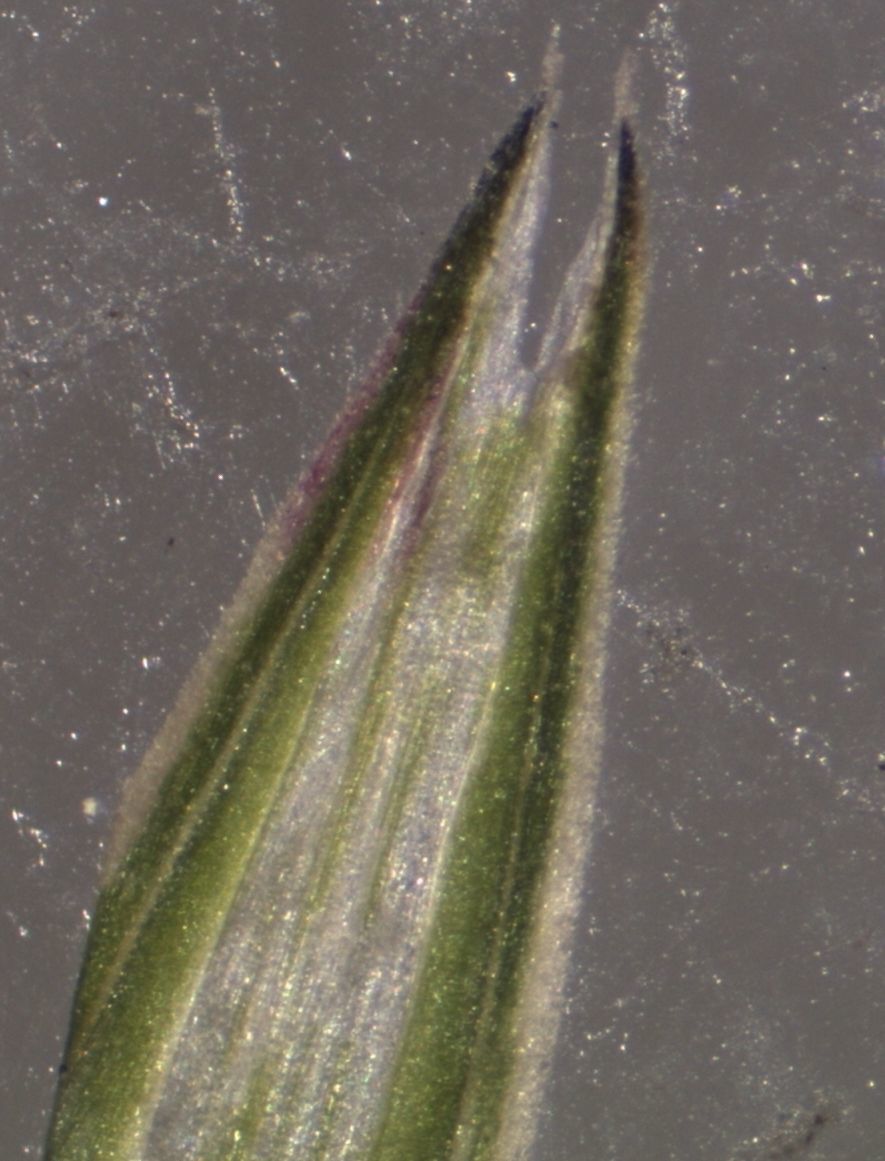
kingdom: Plantae
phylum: Tracheophyta
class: Liliopsida
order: Poales
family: Poaceae
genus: Glyceria
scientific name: Glyceria declinata
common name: Small sweet-grass
